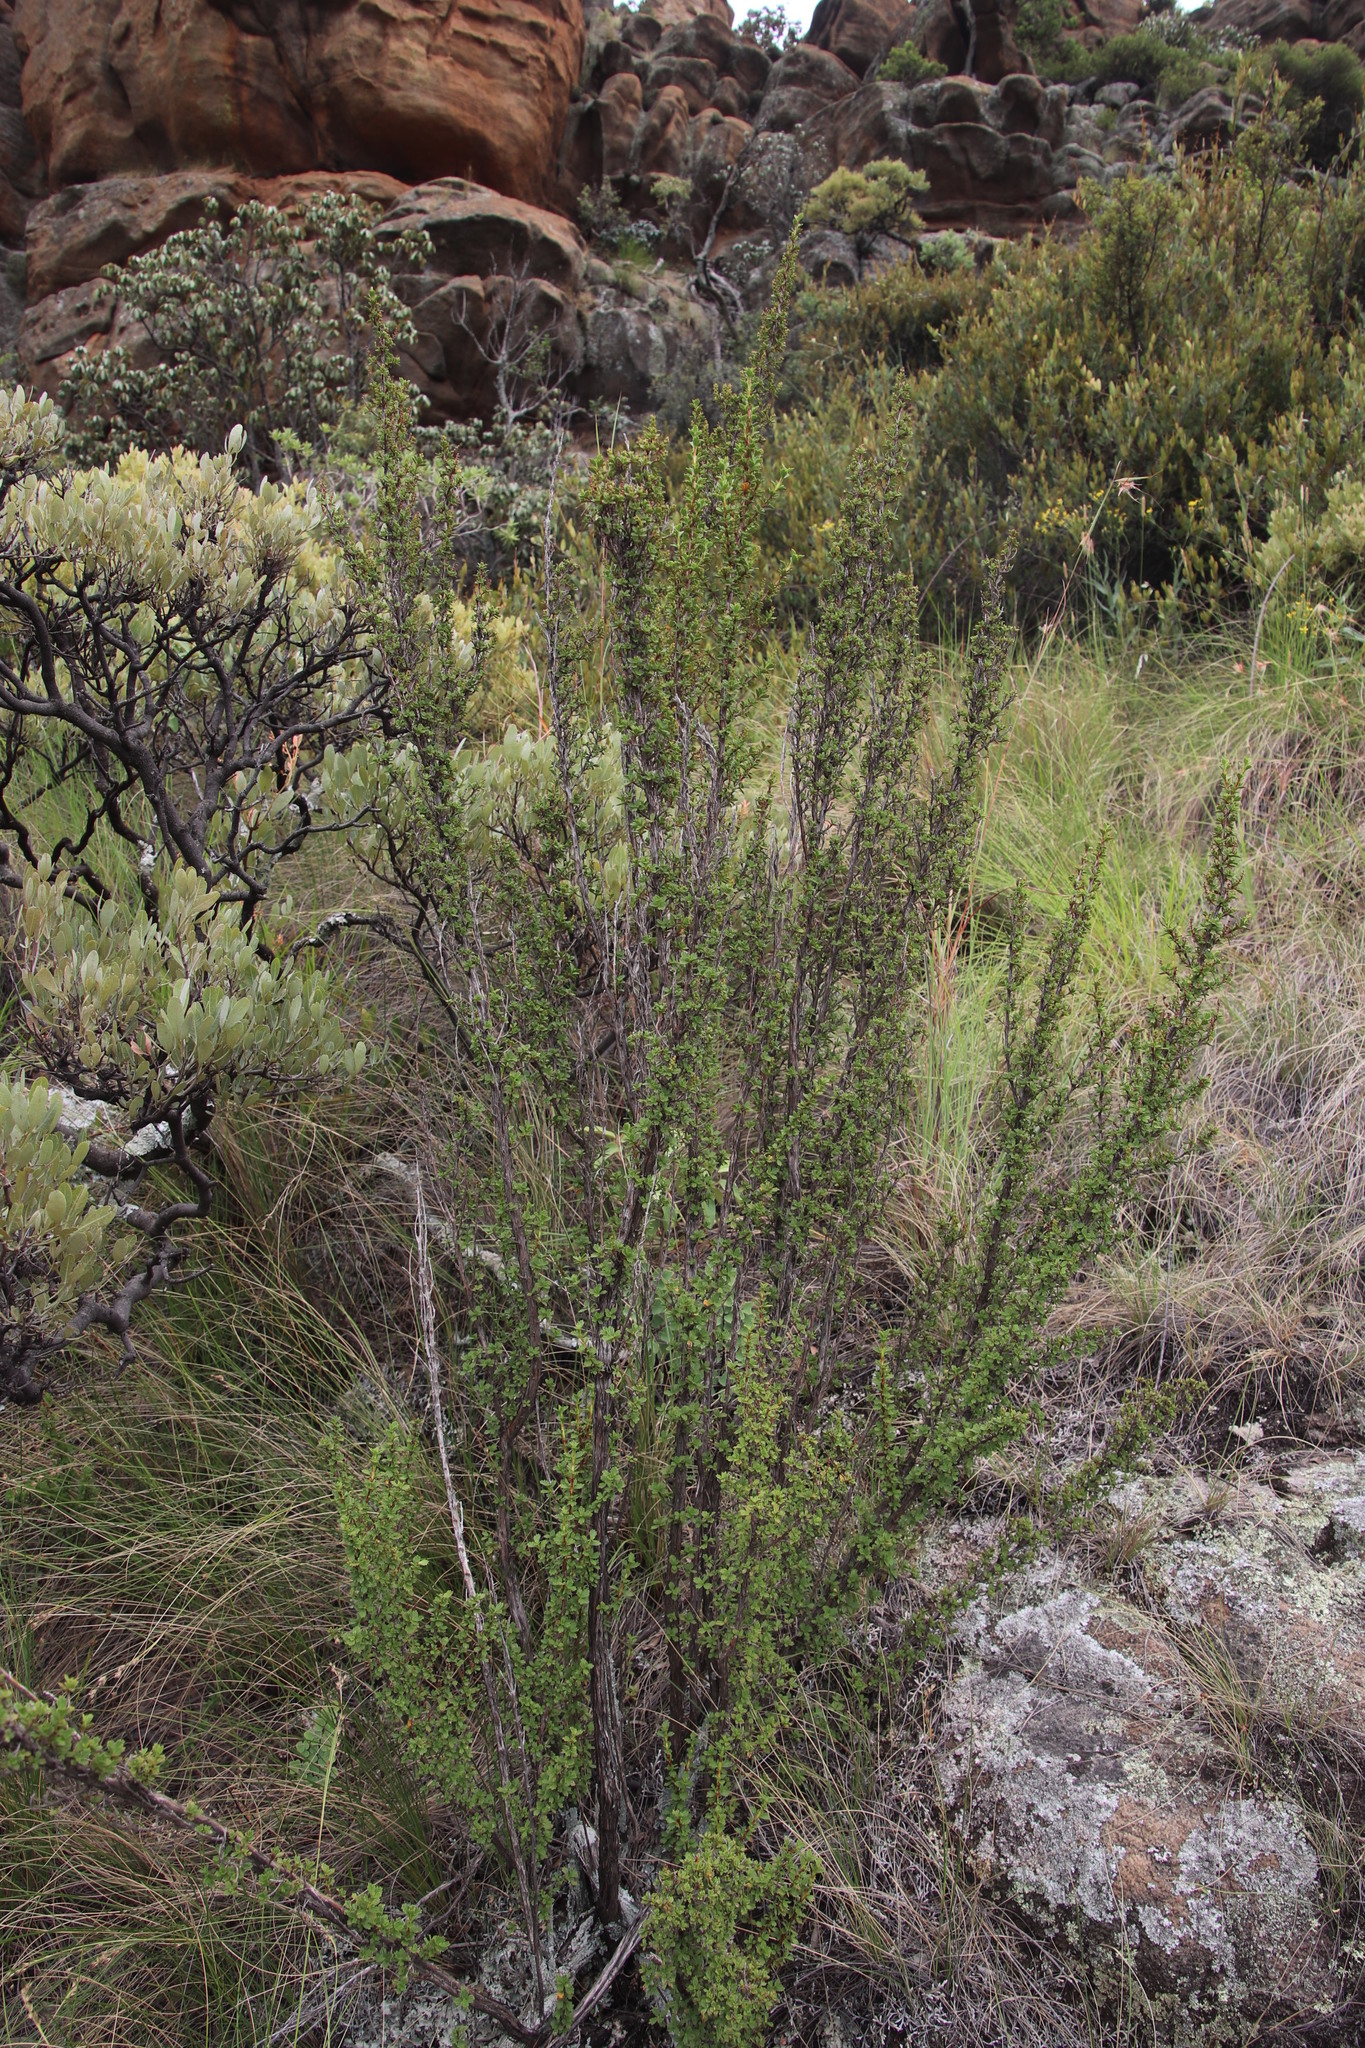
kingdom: Plantae
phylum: Tracheophyta
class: Magnoliopsida
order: Gunnerales
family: Myrothamnaceae
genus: Myrothamnus
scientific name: Myrothamnus flabellifolius
